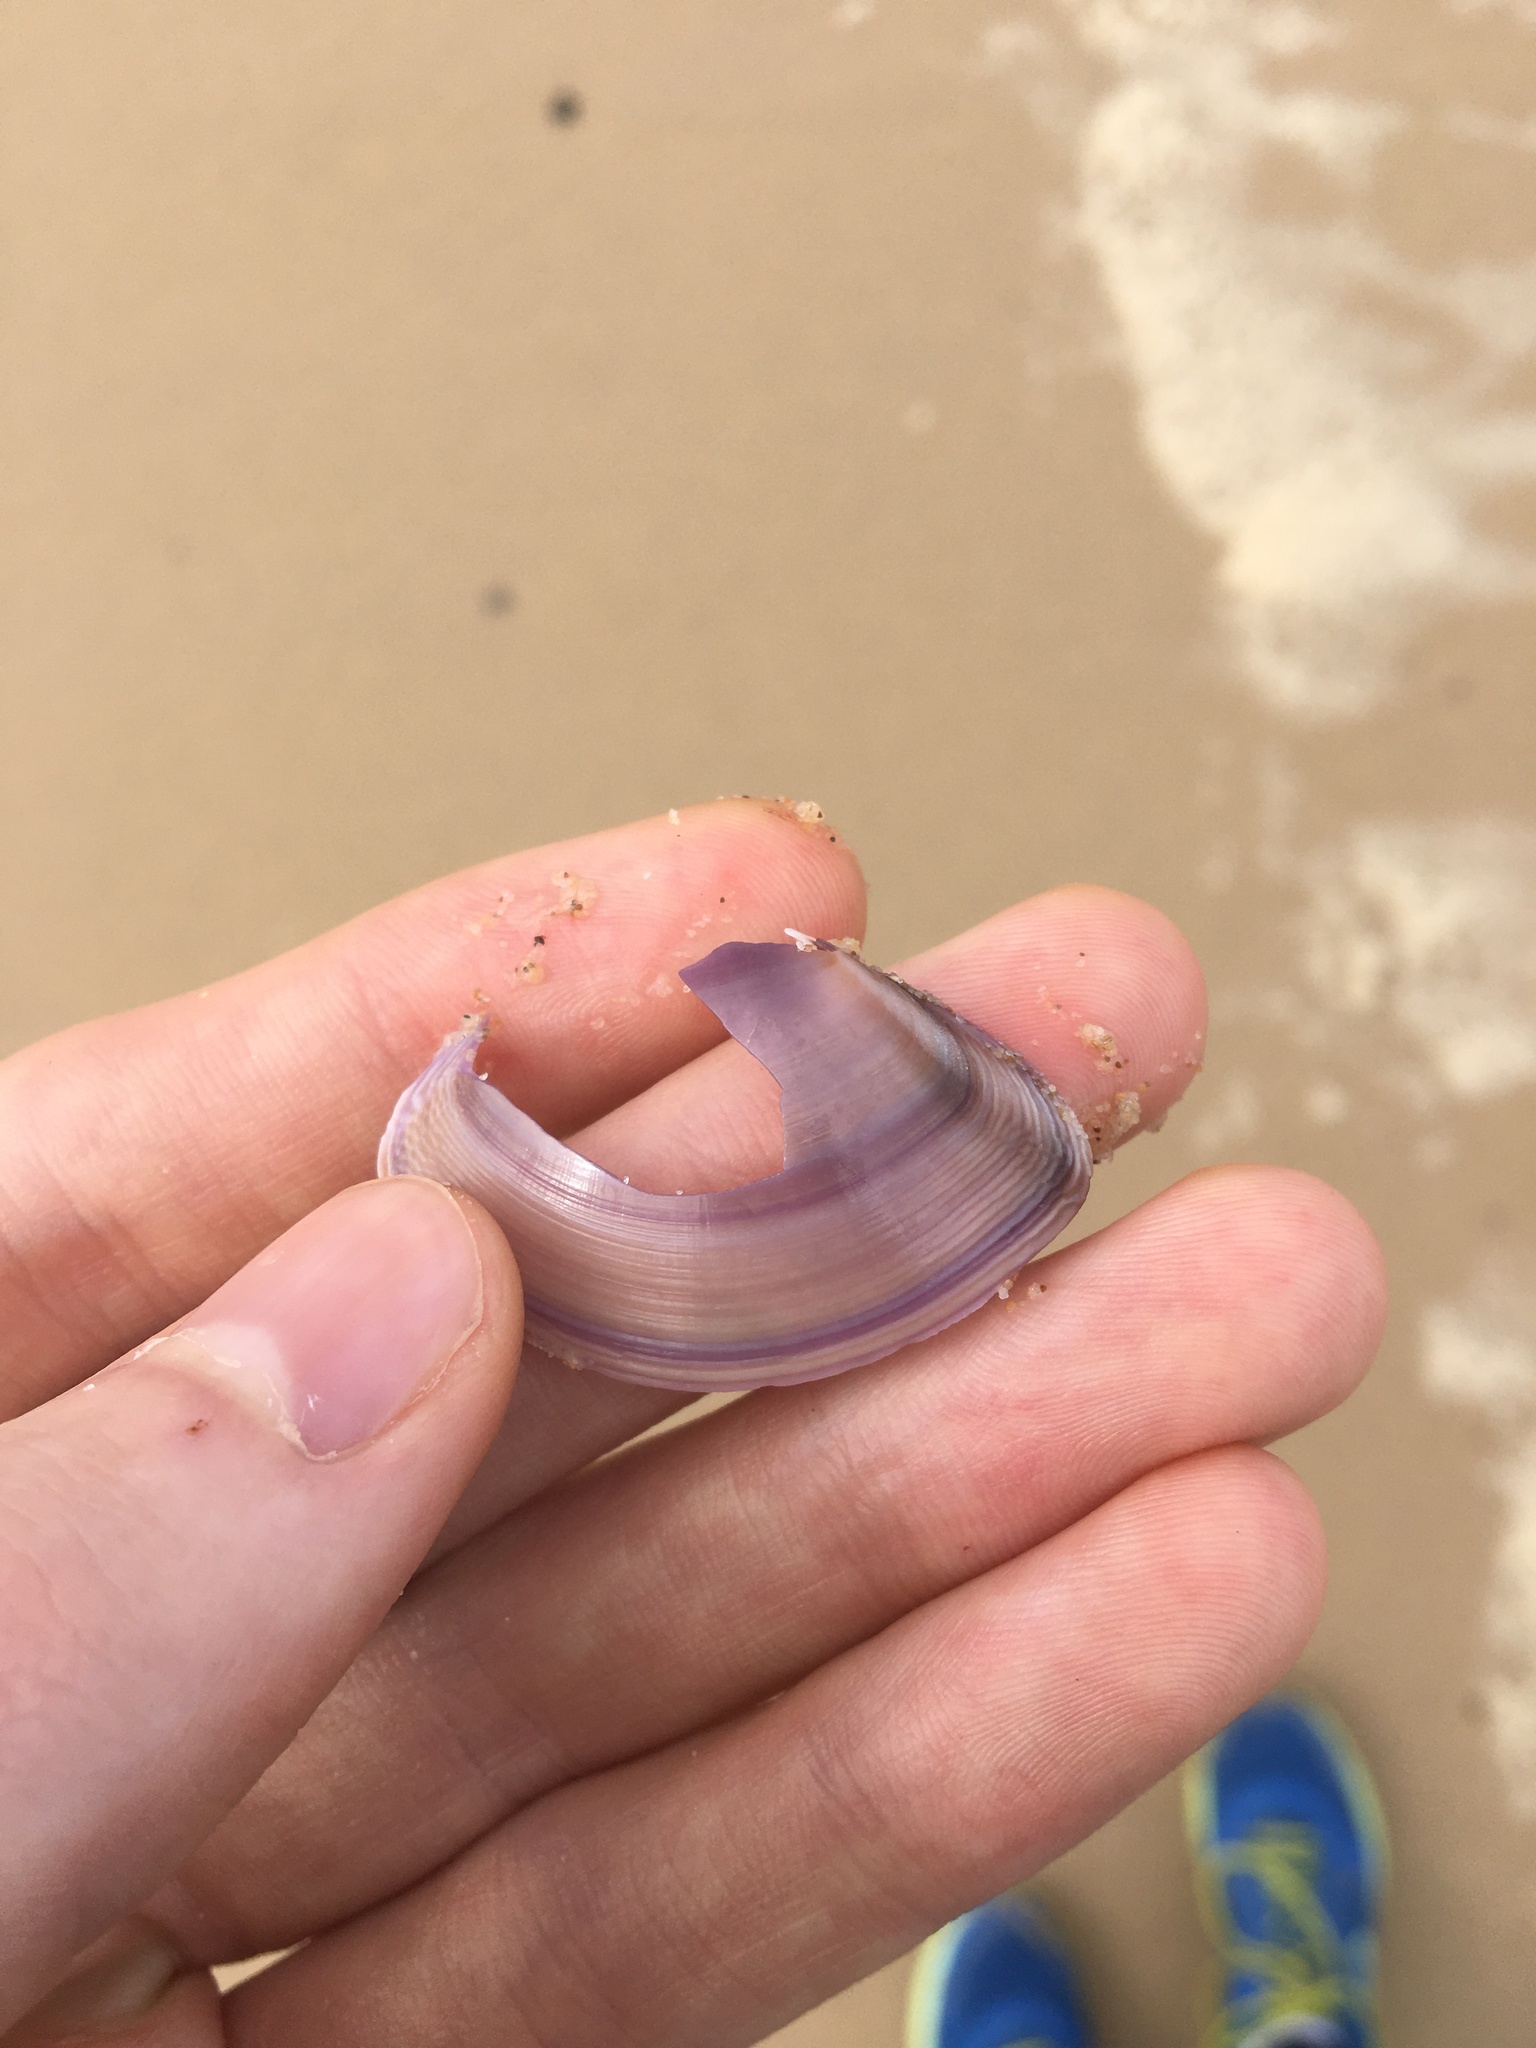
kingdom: Animalia
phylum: Mollusca
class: Bivalvia
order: Venerida
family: Mactridae
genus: Austromactra
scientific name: Austromactra contraria
